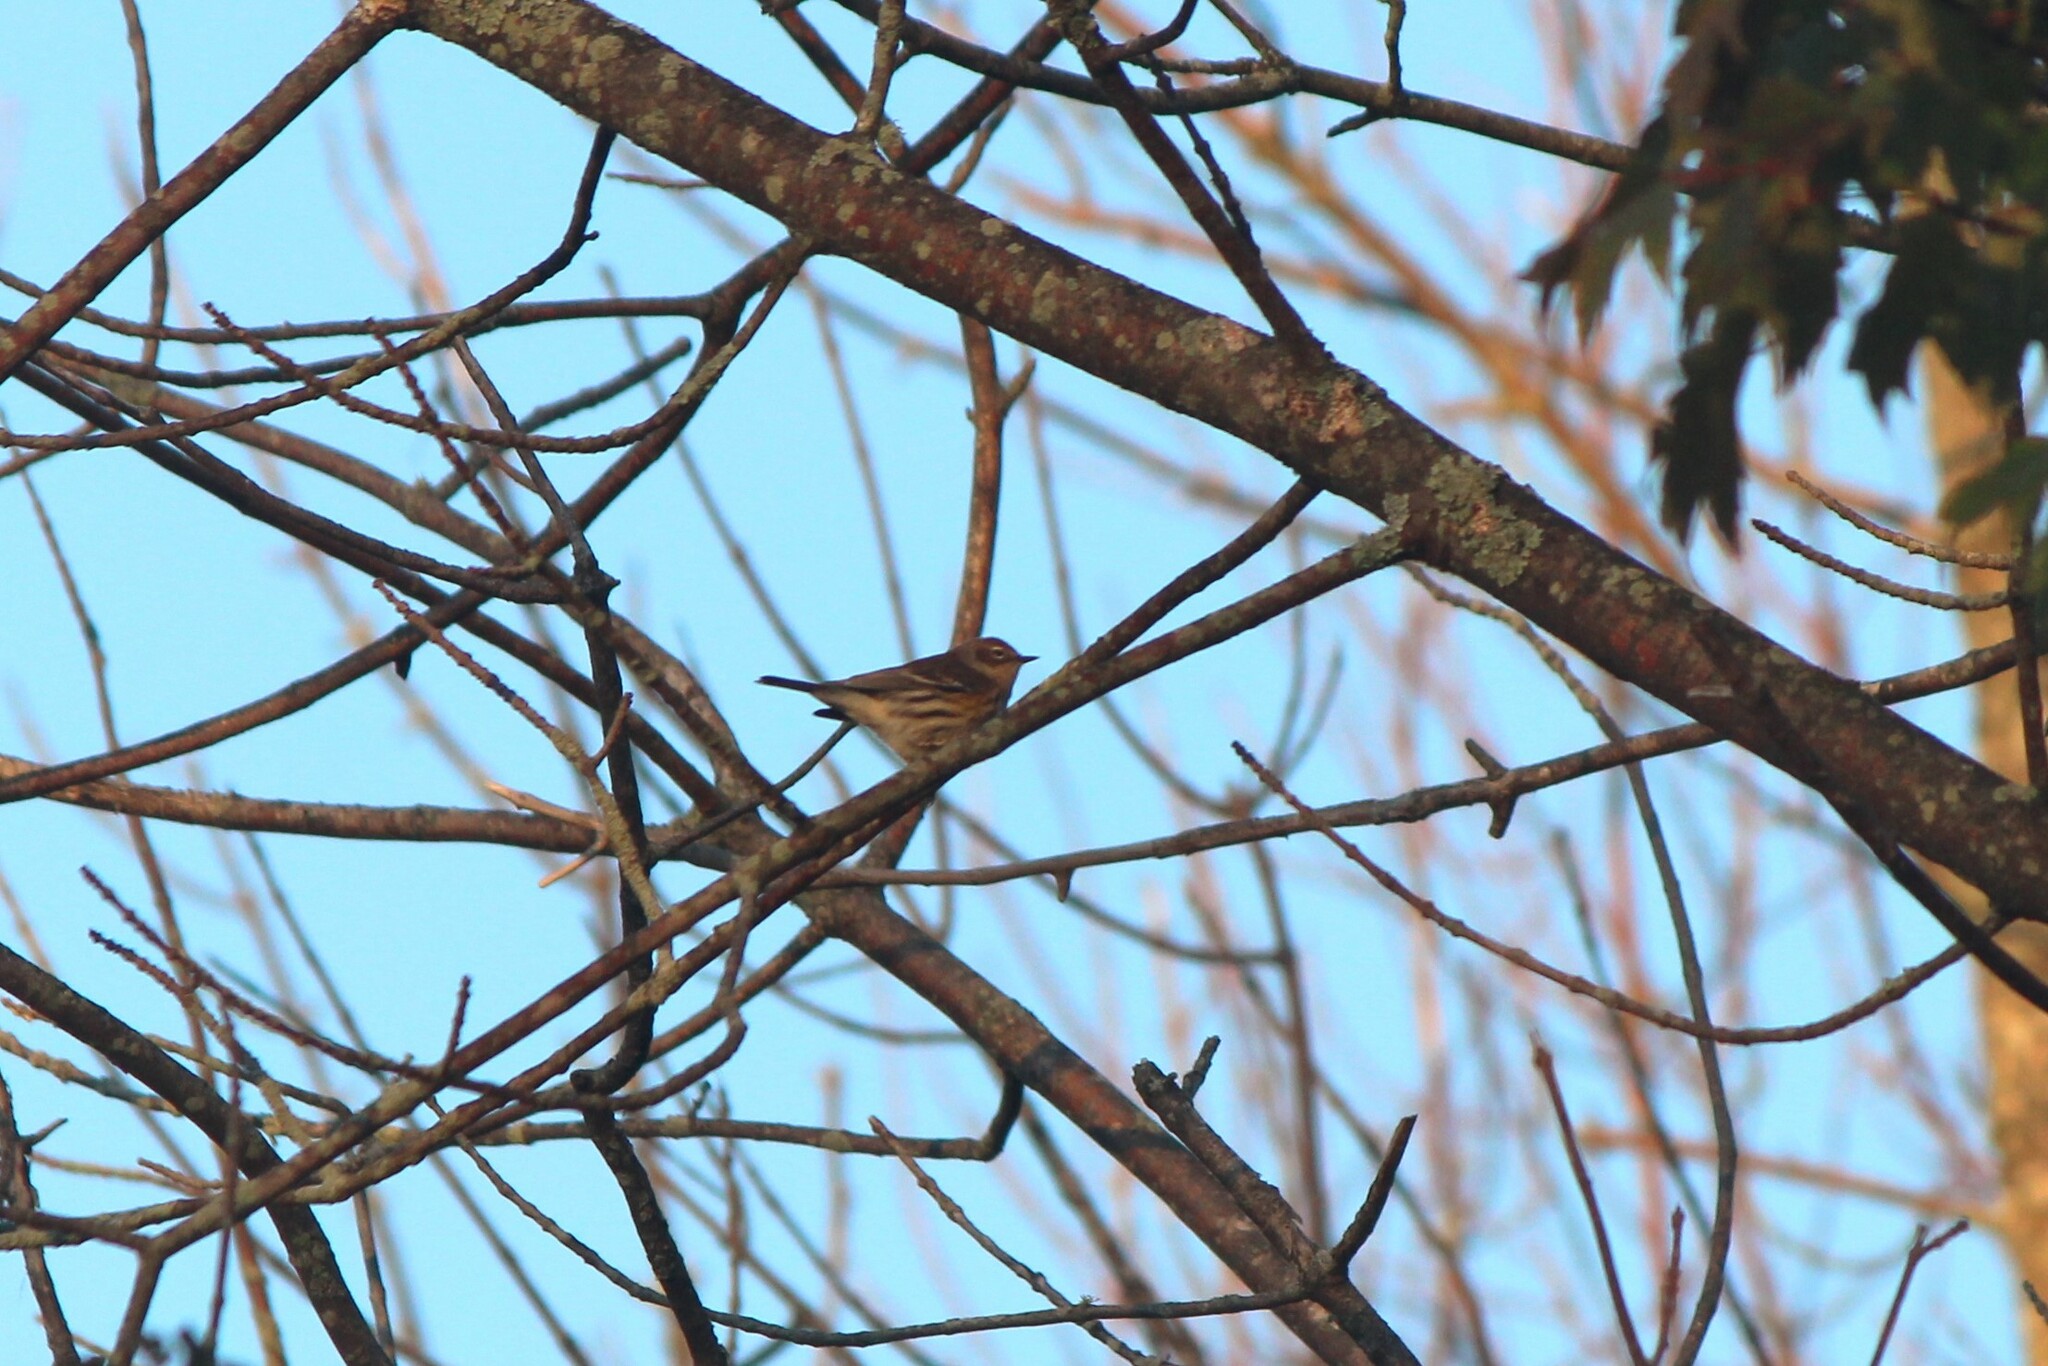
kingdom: Animalia
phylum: Chordata
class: Aves
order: Passeriformes
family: Parulidae
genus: Setophaga
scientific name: Setophaga coronata
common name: Myrtle warbler
